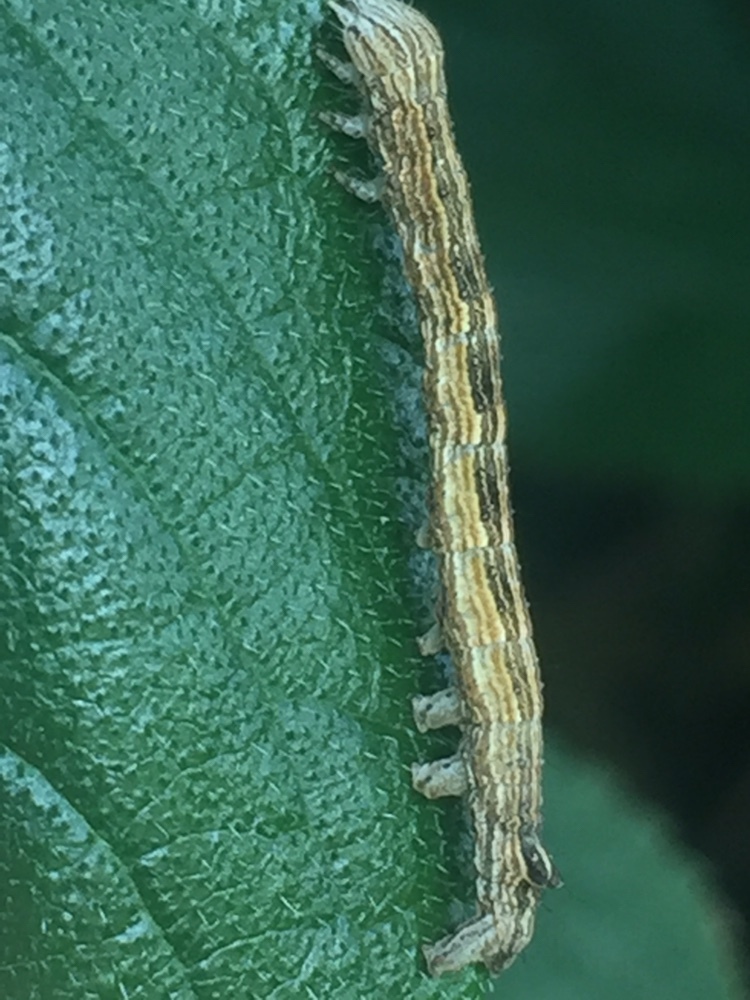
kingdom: Animalia
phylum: Arthropoda
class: Insecta
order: Lepidoptera
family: Noctuidae
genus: Neogalea
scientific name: Neogalea sunia
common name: Lantana stick caterpillar
